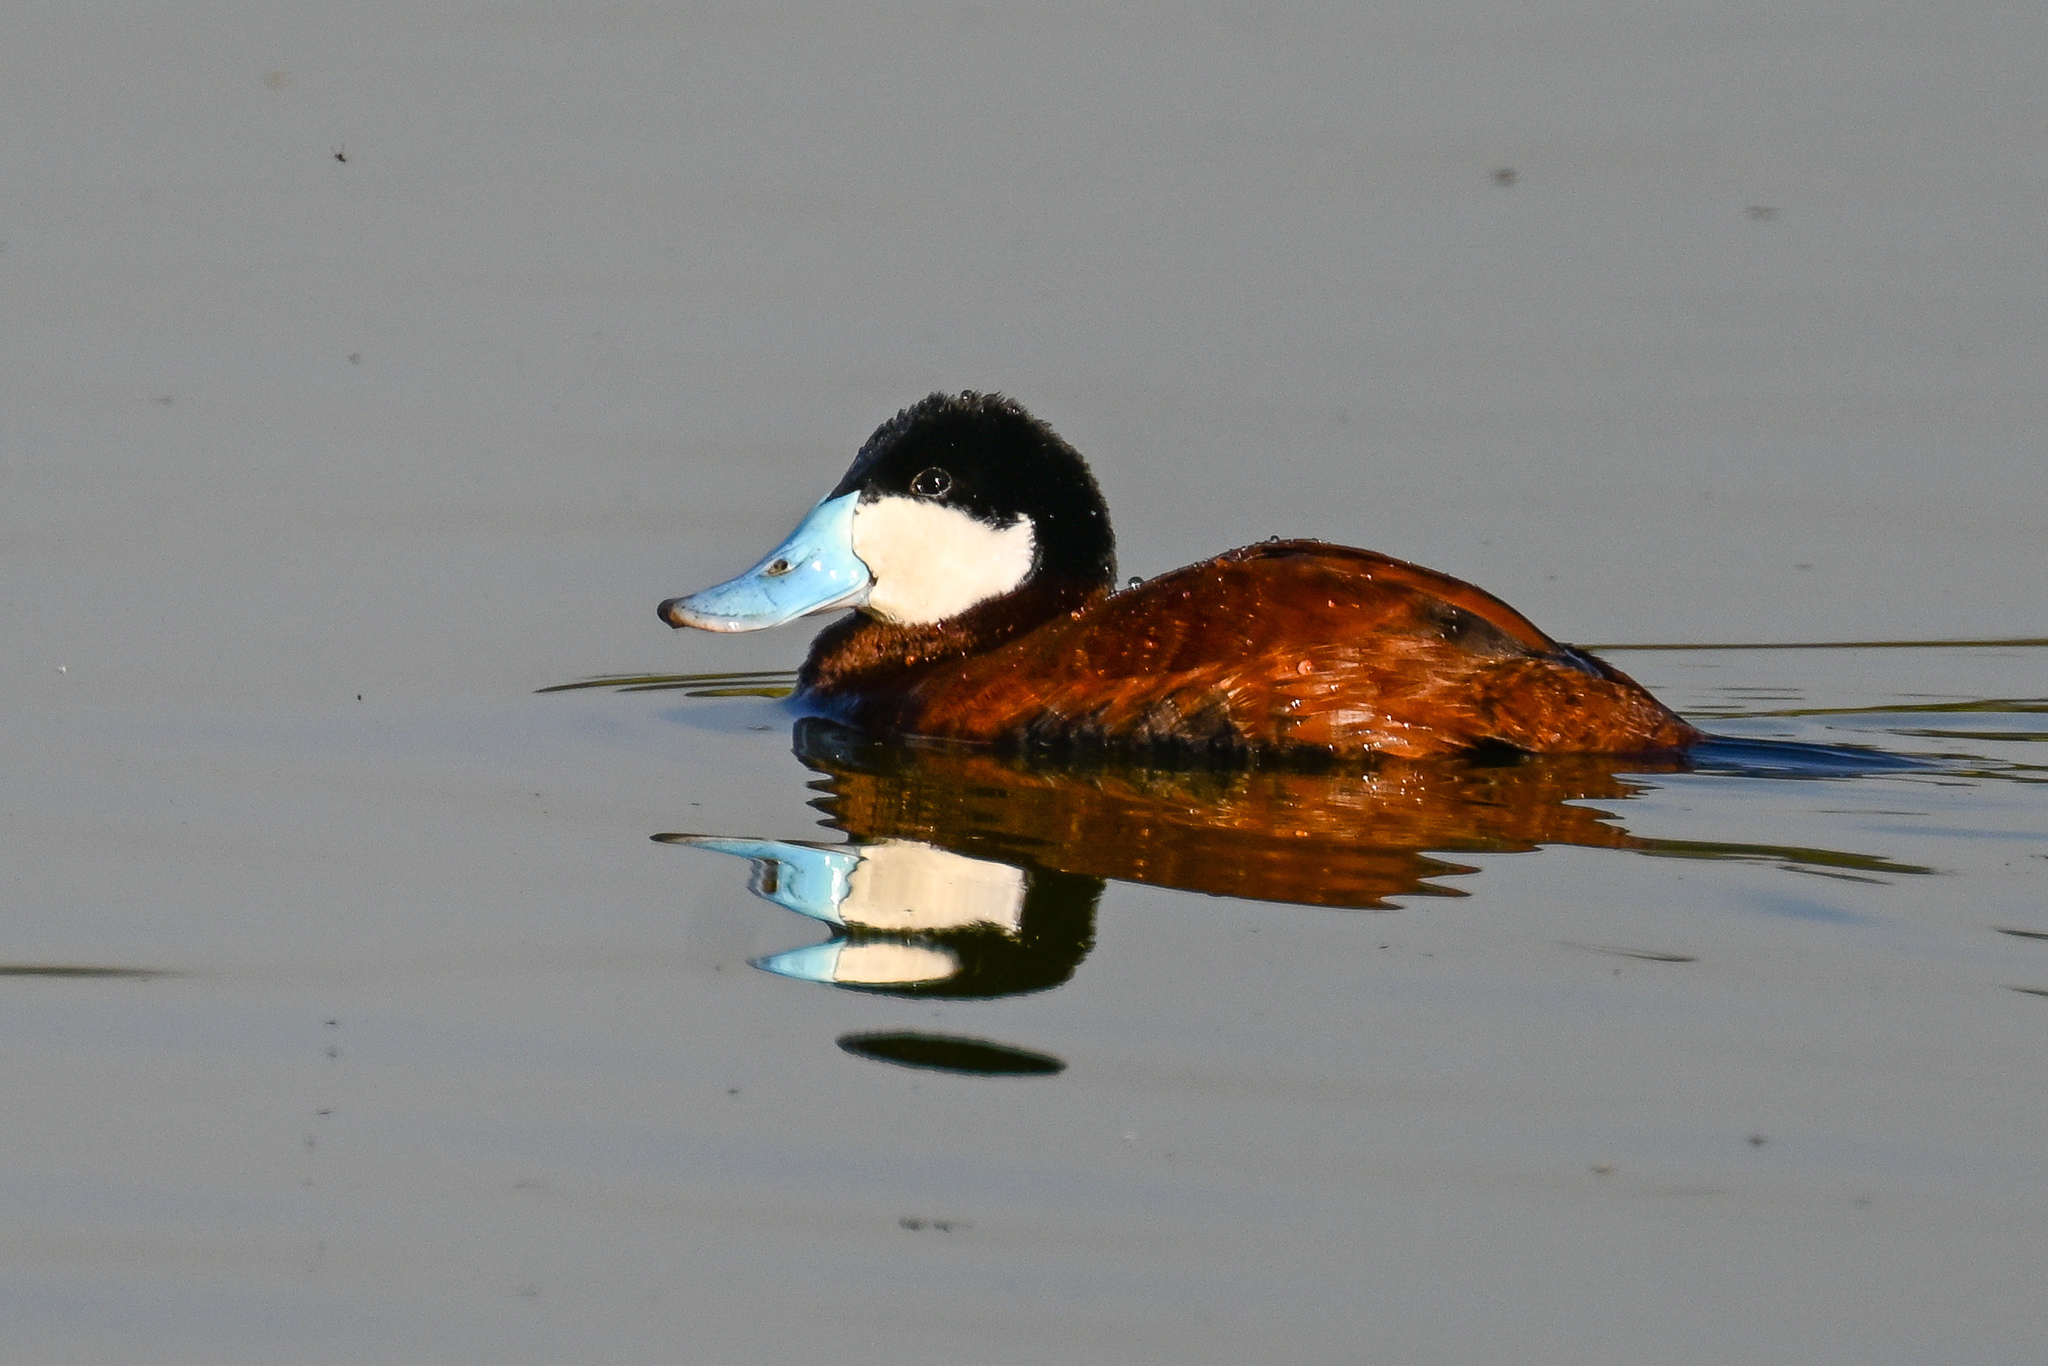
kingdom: Animalia
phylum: Chordata
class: Aves
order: Anseriformes
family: Anatidae
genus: Oxyura
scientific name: Oxyura jamaicensis
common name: Ruddy duck
